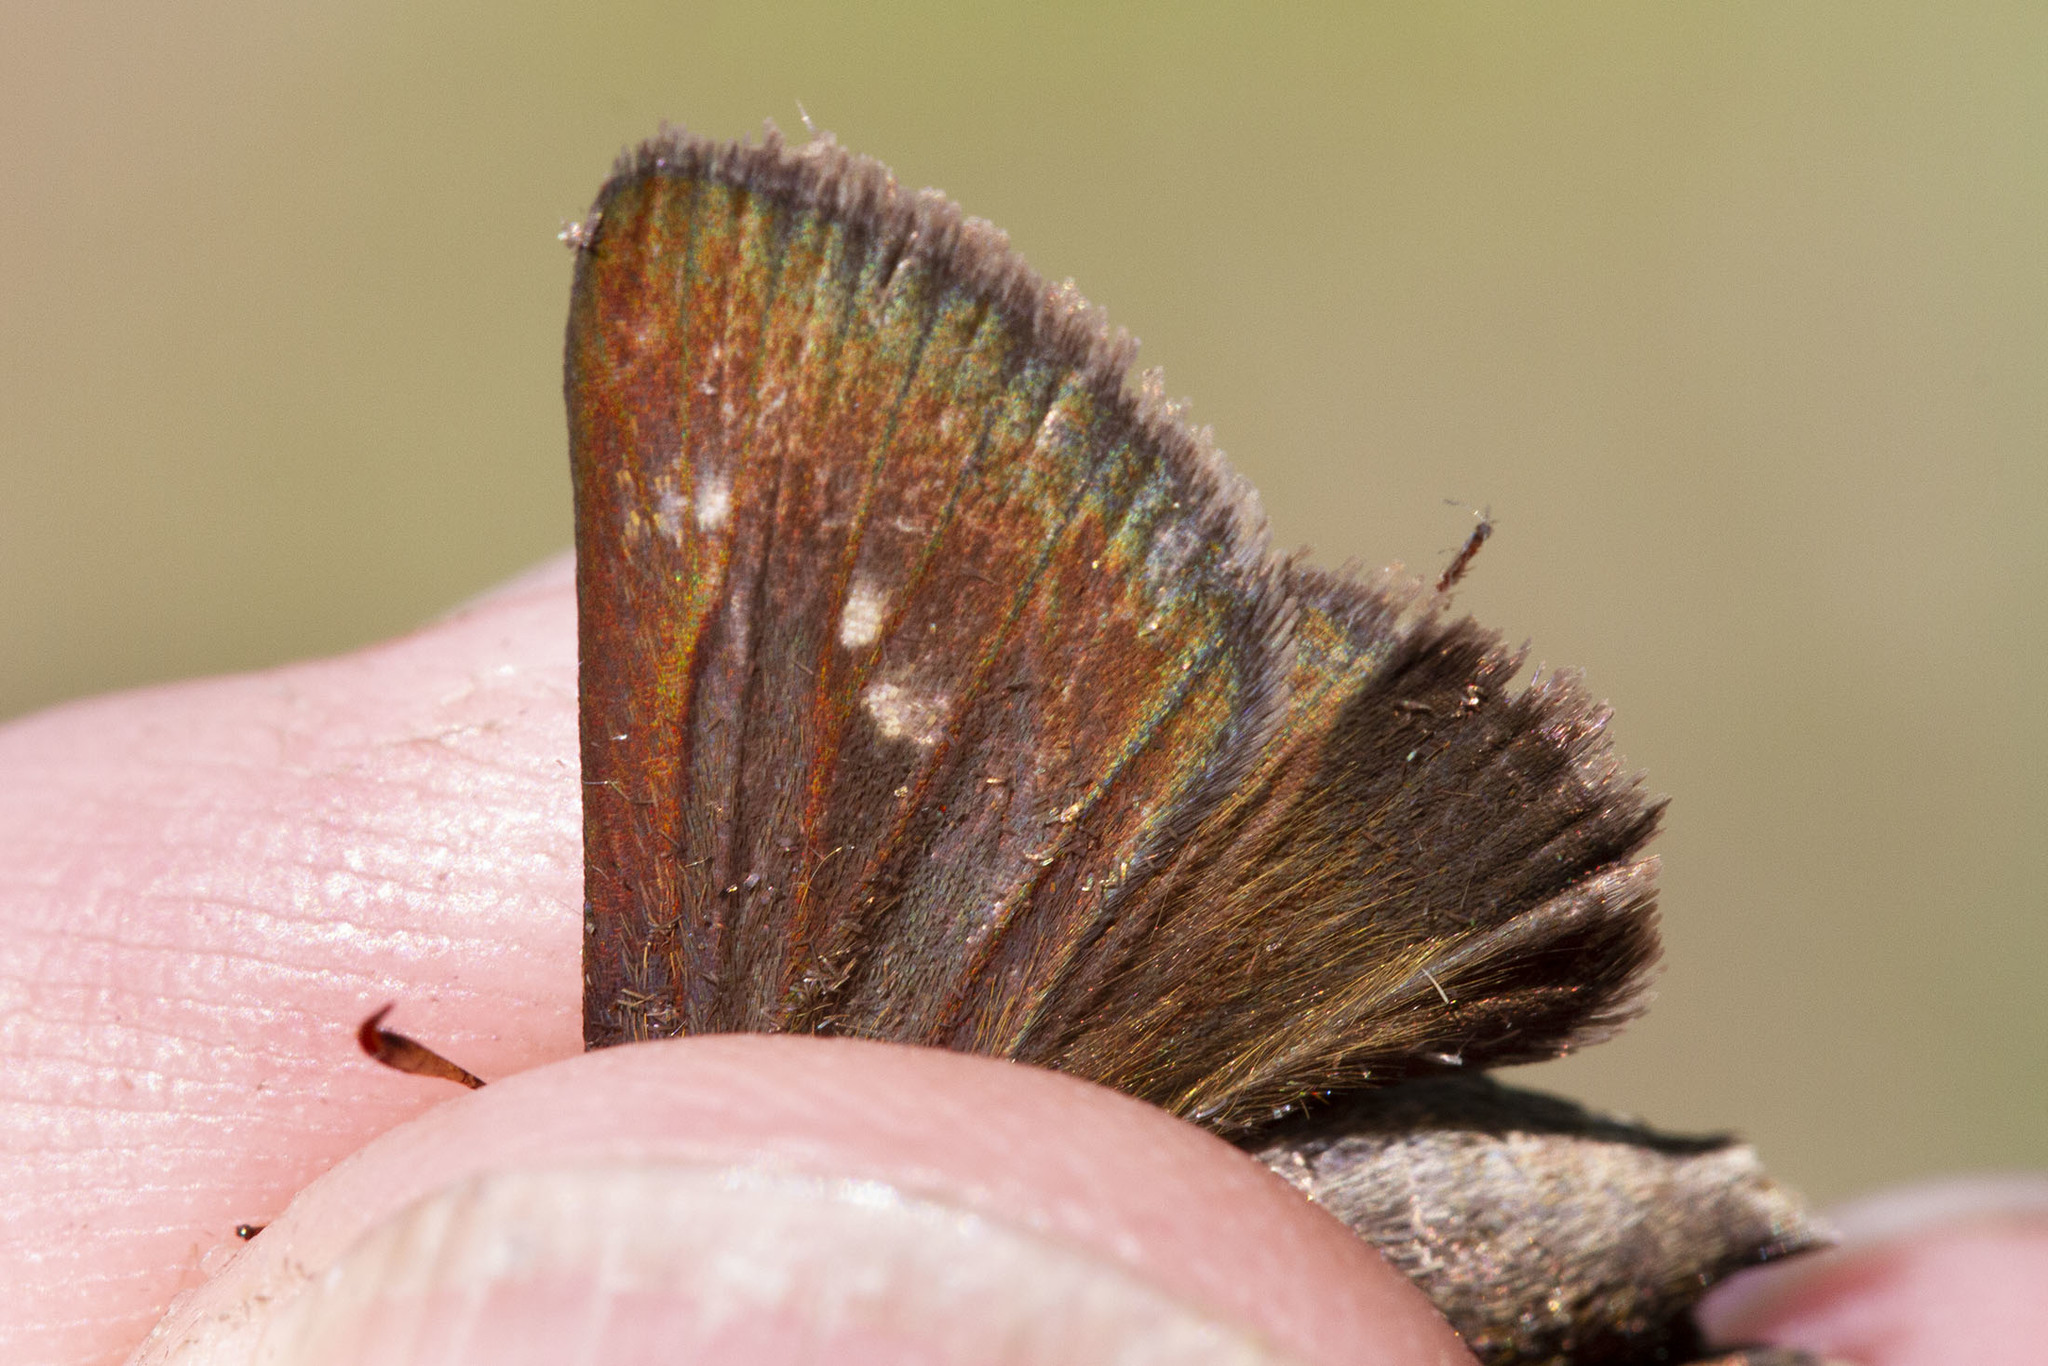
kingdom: Animalia
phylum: Arthropoda
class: Insecta
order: Lepidoptera
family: Hesperiidae
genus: Euphyes
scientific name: Euphyes vestris
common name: Dun skipper
